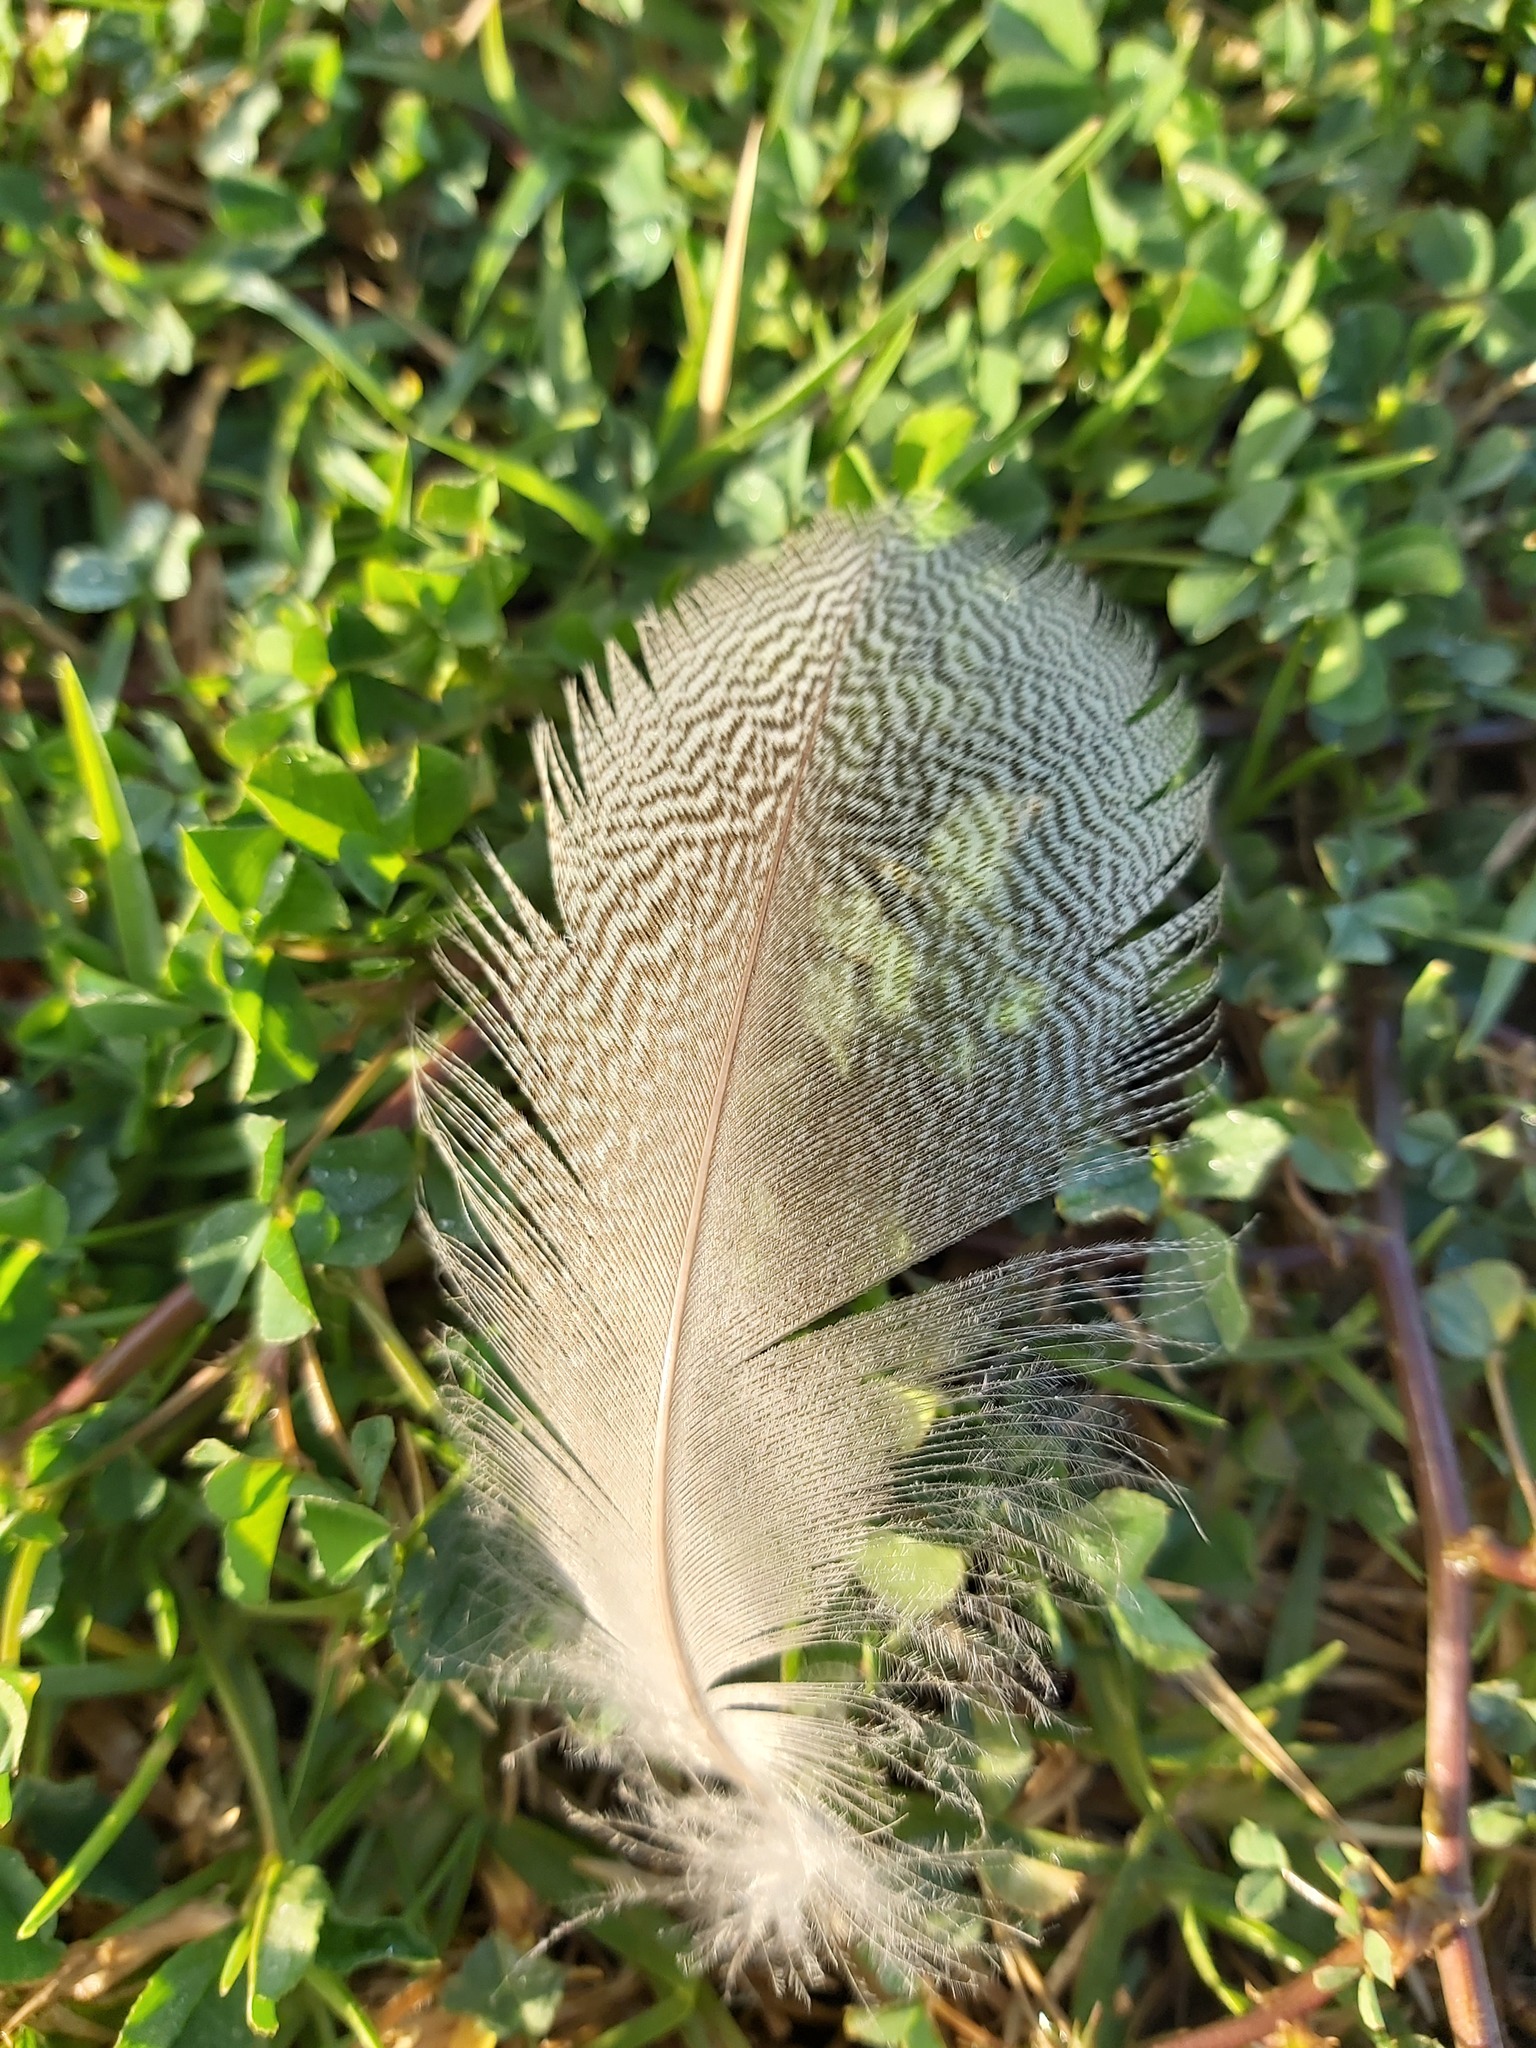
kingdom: Animalia
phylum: Chordata
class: Aves
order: Anseriformes
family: Anatidae
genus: Alopochen
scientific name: Alopochen aegyptiaca
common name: Egyptian goose
